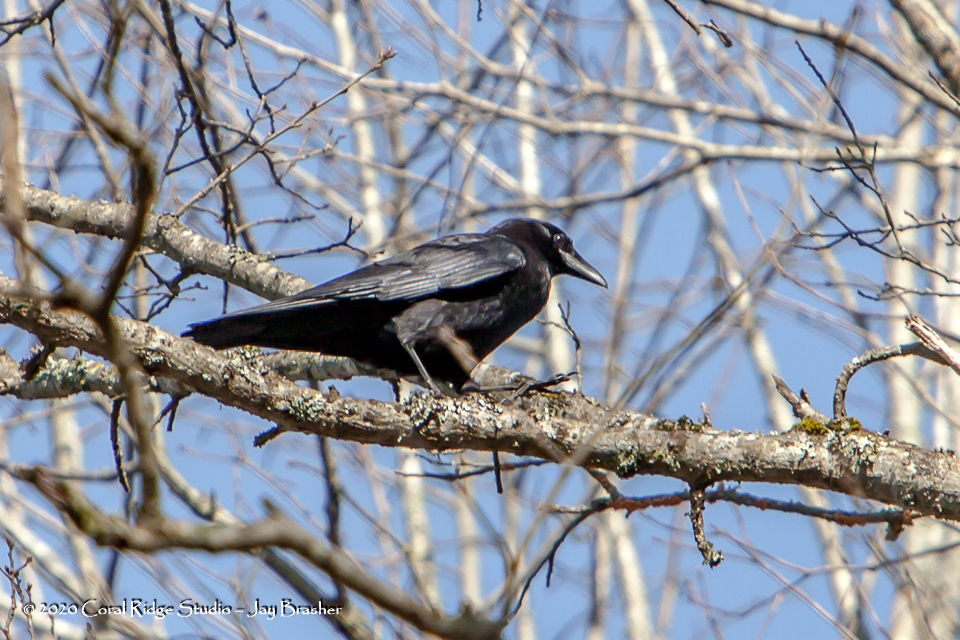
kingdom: Animalia
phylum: Chordata
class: Aves
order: Passeriformes
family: Corvidae
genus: Corvus
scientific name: Corvus brachyrhynchos
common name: American crow
